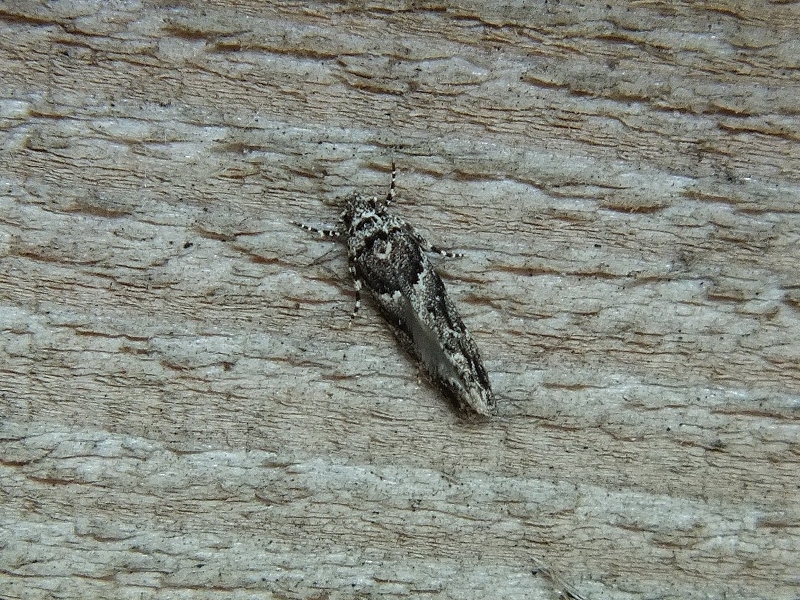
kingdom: Animalia
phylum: Arthropoda
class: Insecta
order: Lepidoptera
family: Gelechiidae
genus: Recurvaria
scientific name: Recurvaria nanella
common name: Gelechiid moth
